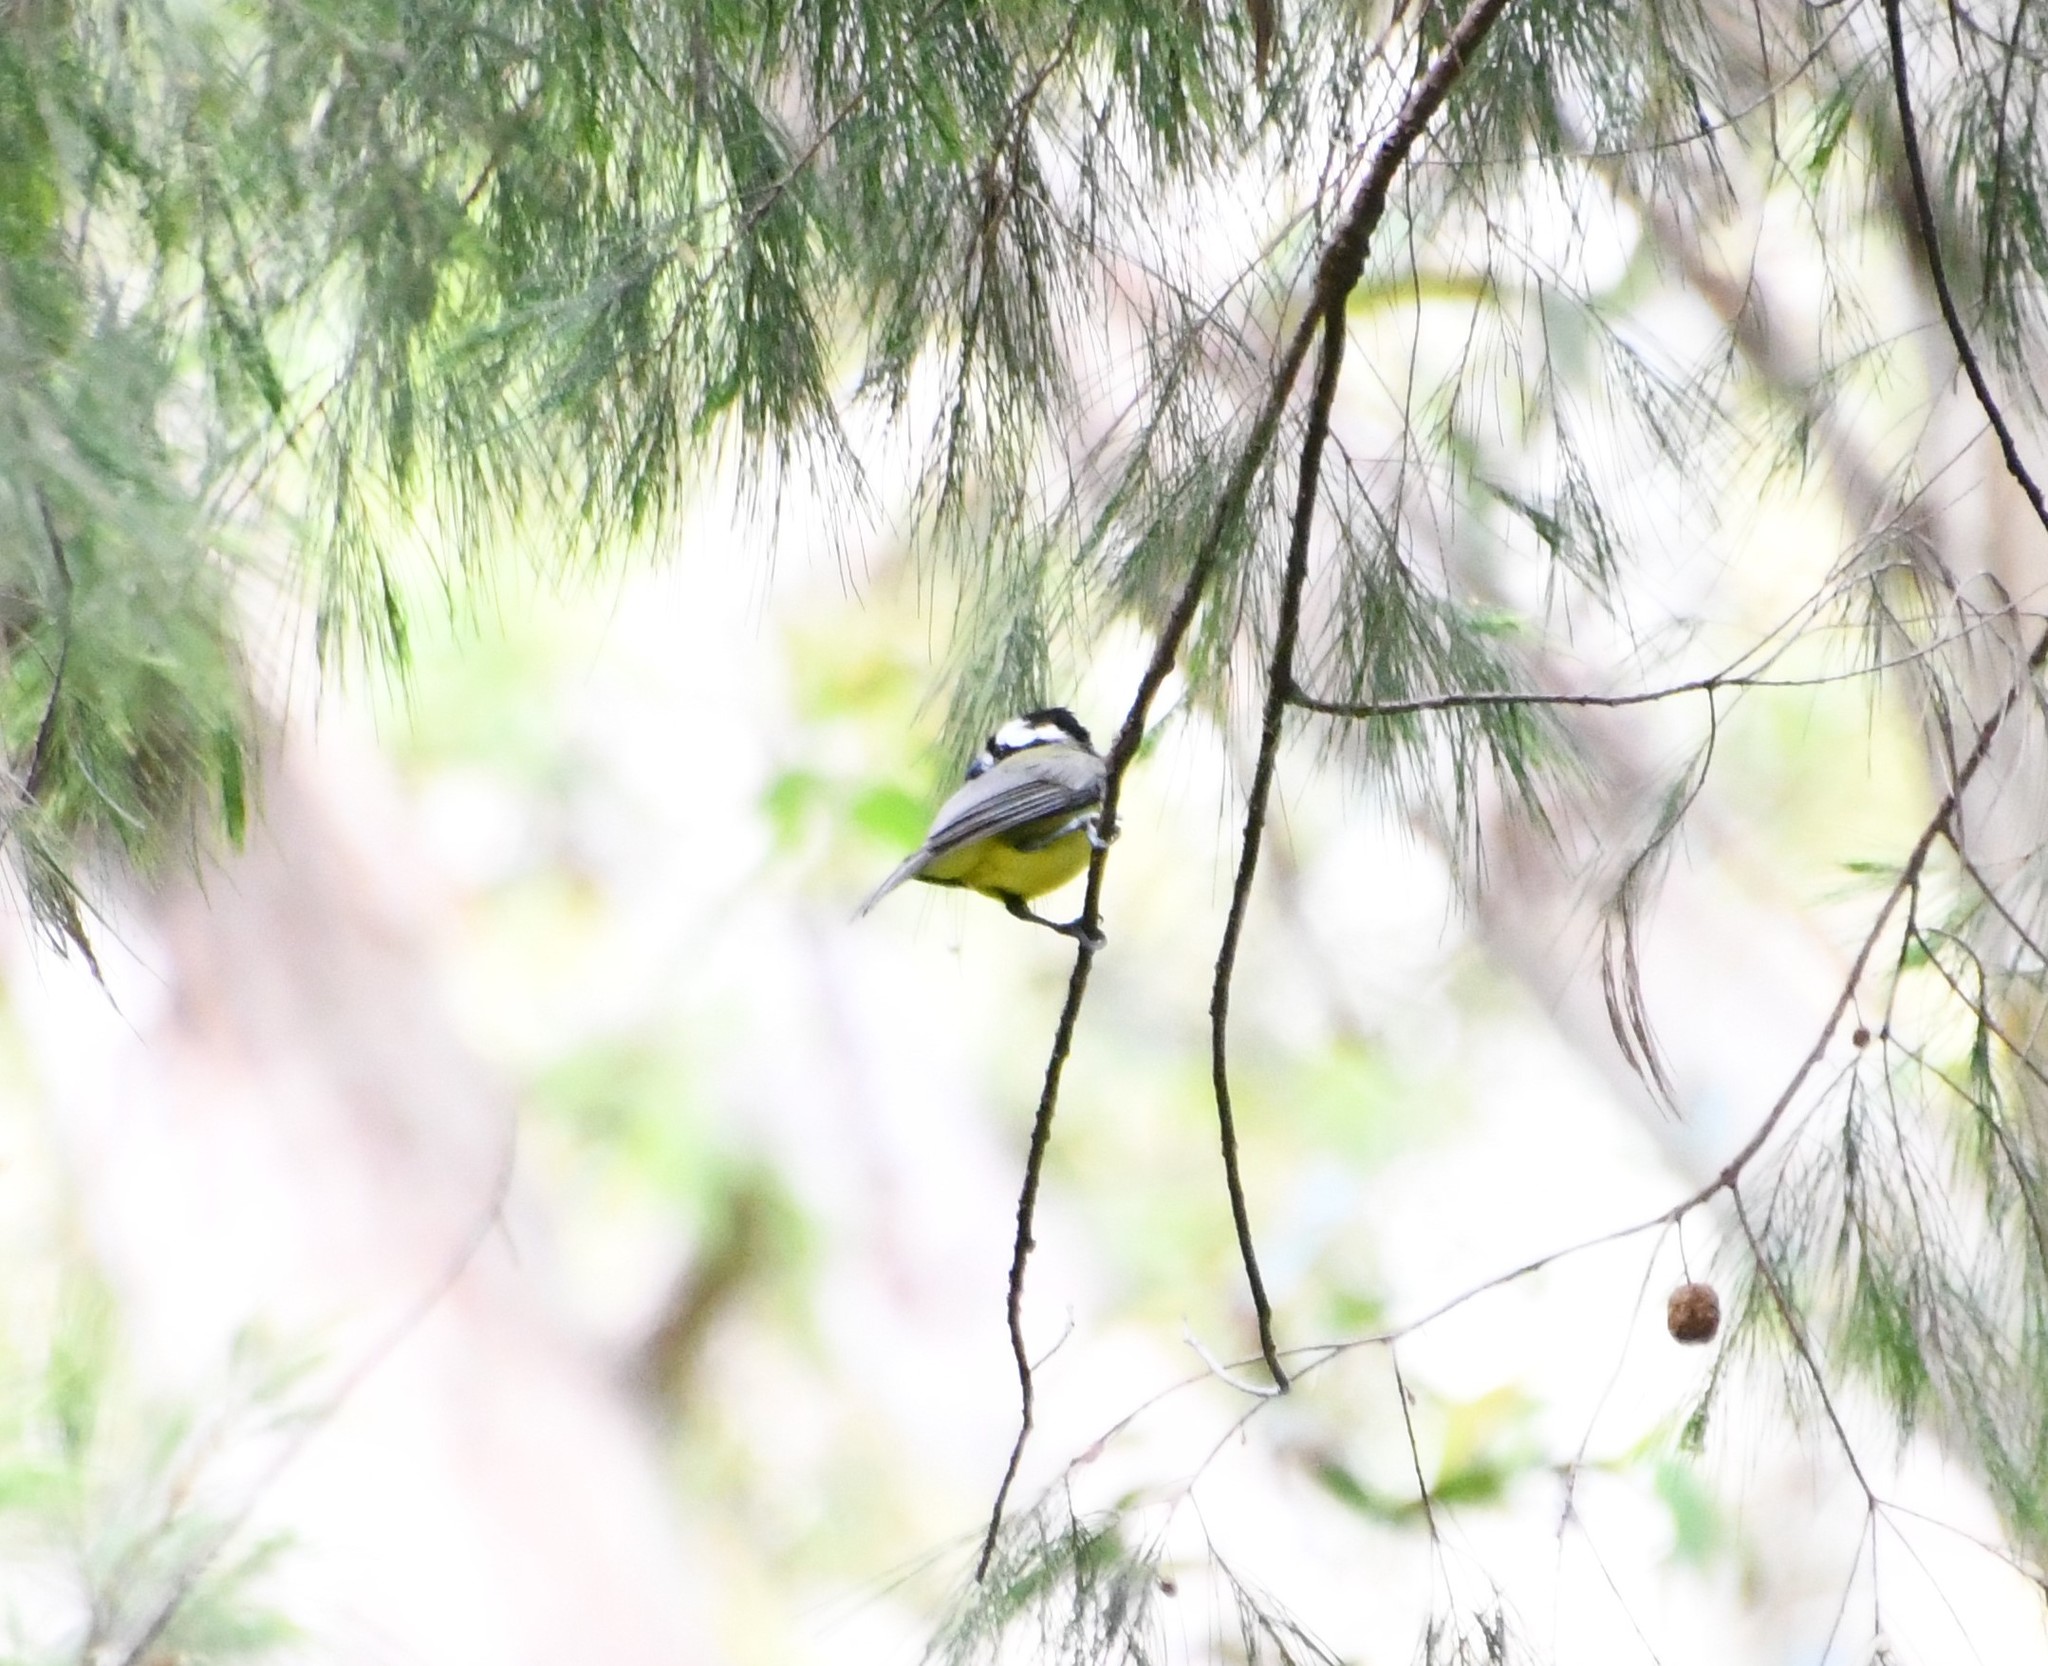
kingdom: Animalia
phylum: Chordata
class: Aves
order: Passeriformes
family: Pachycephalidae
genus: Falcunculus
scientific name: Falcunculus frontatus
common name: Crested shriketit
